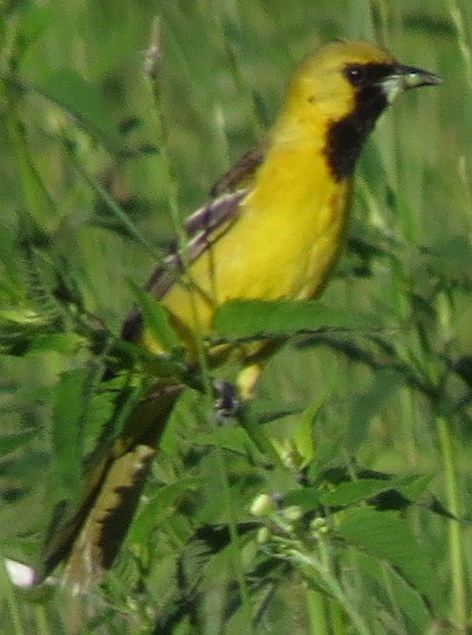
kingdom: Animalia
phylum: Chordata
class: Aves
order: Passeriformes
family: Icteridae
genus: Icterus
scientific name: Icterus spurius
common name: Orchard oriole
